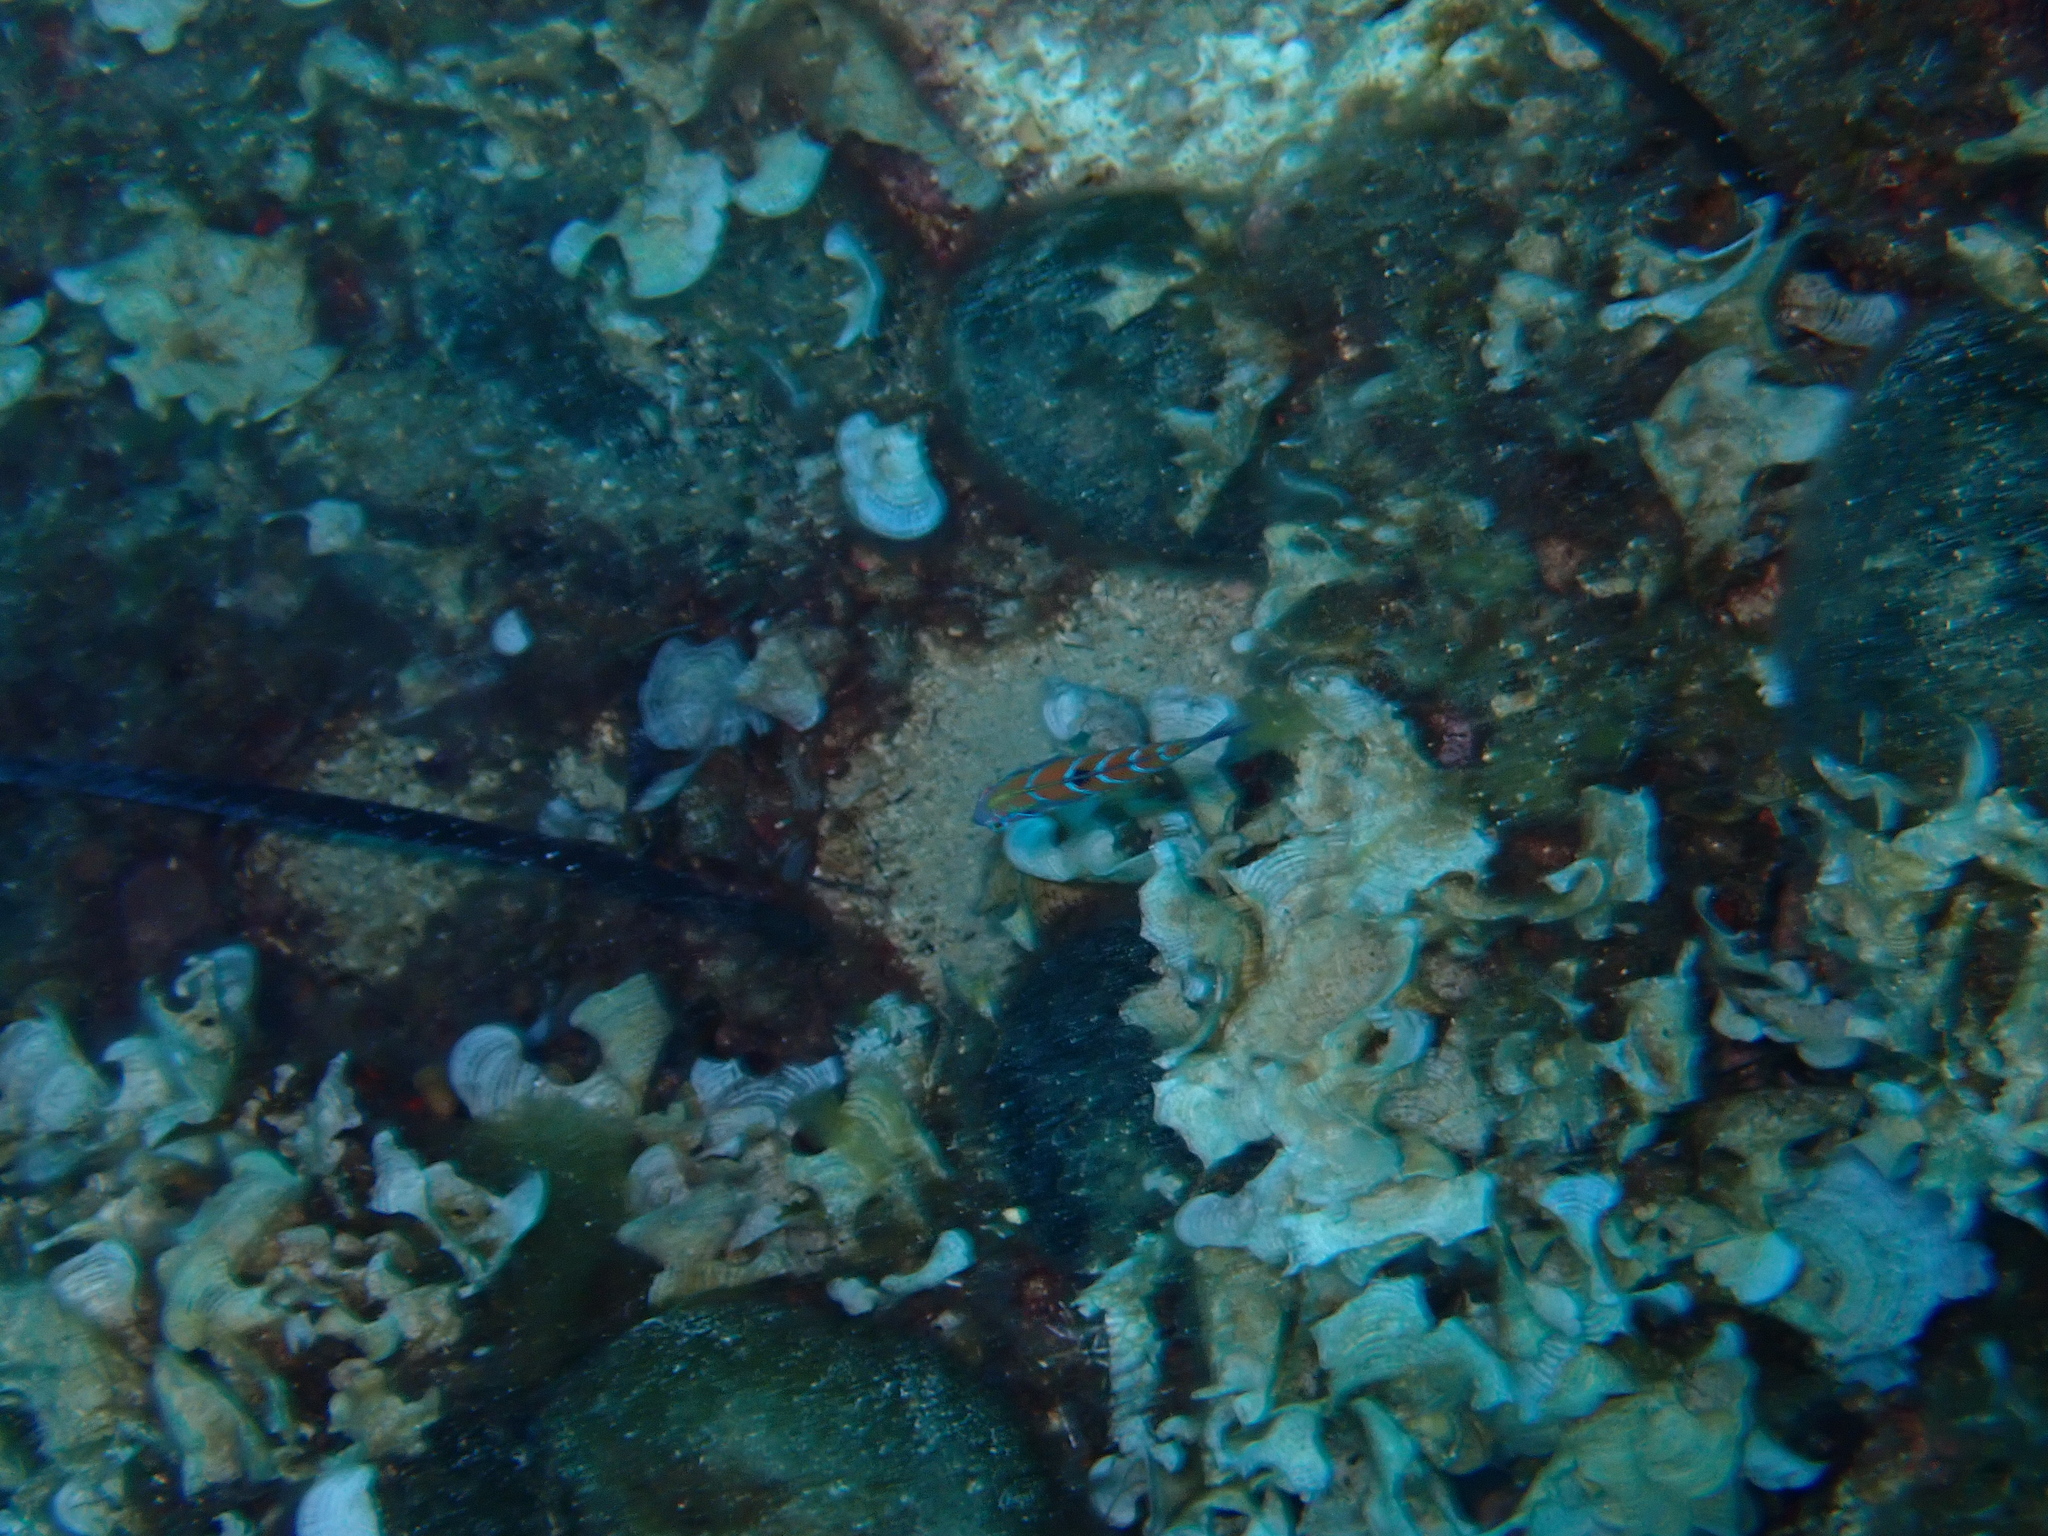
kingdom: Animalia
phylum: Chordata
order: Perciformes
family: Labridae
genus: Thalassoma
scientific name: Thalassoma pavo
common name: Ornate wrasse
